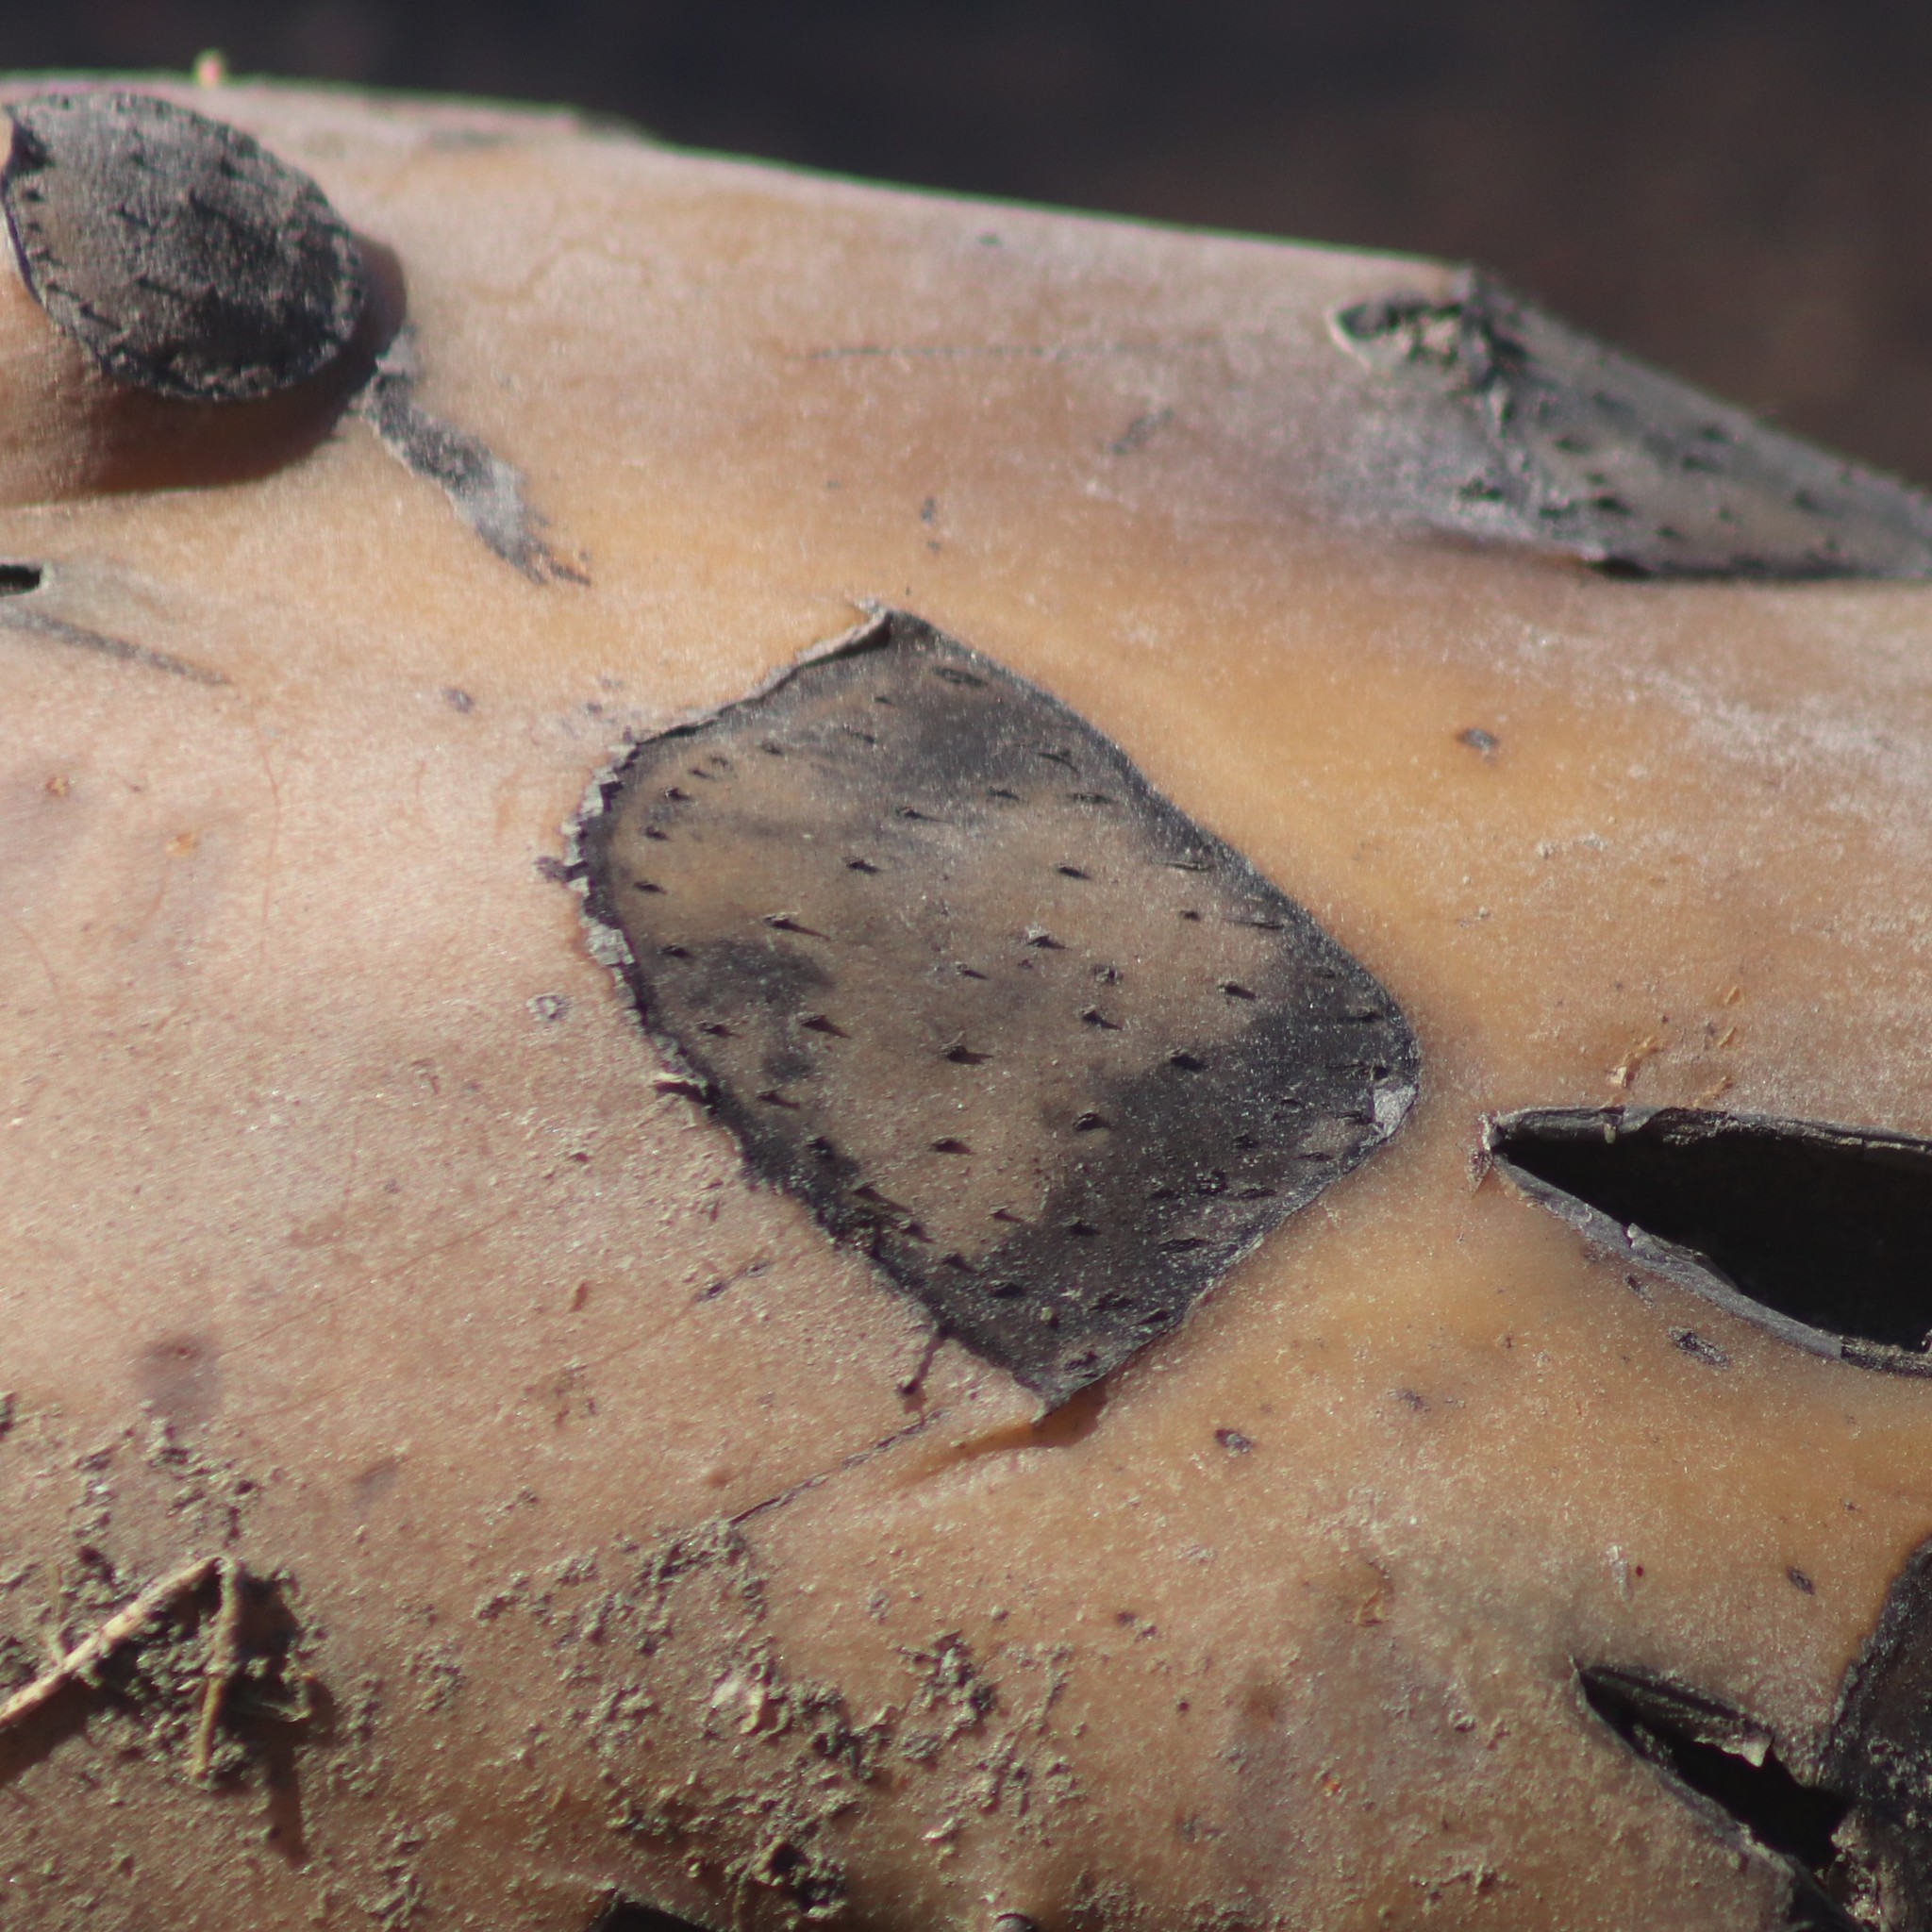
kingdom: Plantae
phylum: Tracheophyta
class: Magnoliopsida
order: Nymphaeales
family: Nymphaeaceae
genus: Nuphar
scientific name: Nuphar variegata
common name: Beaver-root
